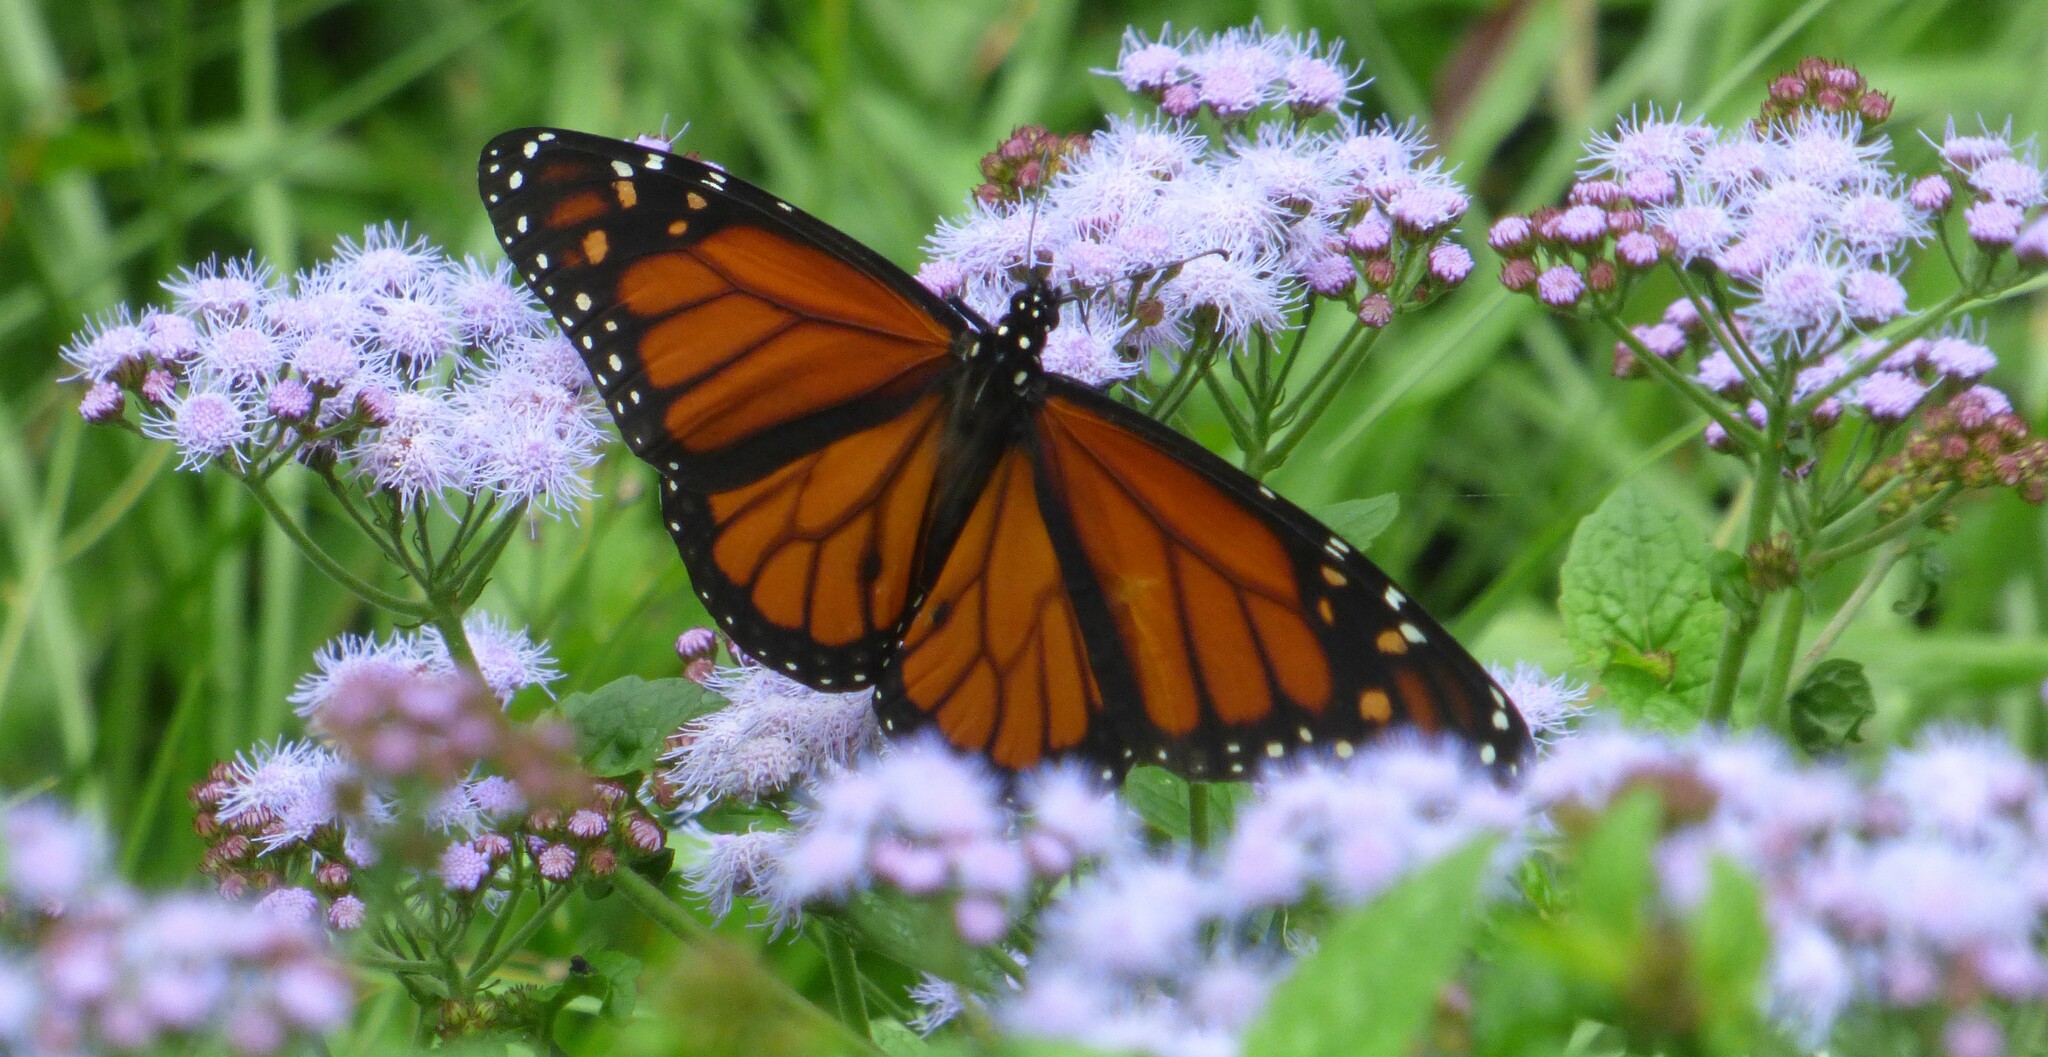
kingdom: Animalia
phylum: Arthropoda
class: Insecta
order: Lepidoptera
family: Nymphalidae
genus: Danaus
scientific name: Danaus plexippus
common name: Monarch
